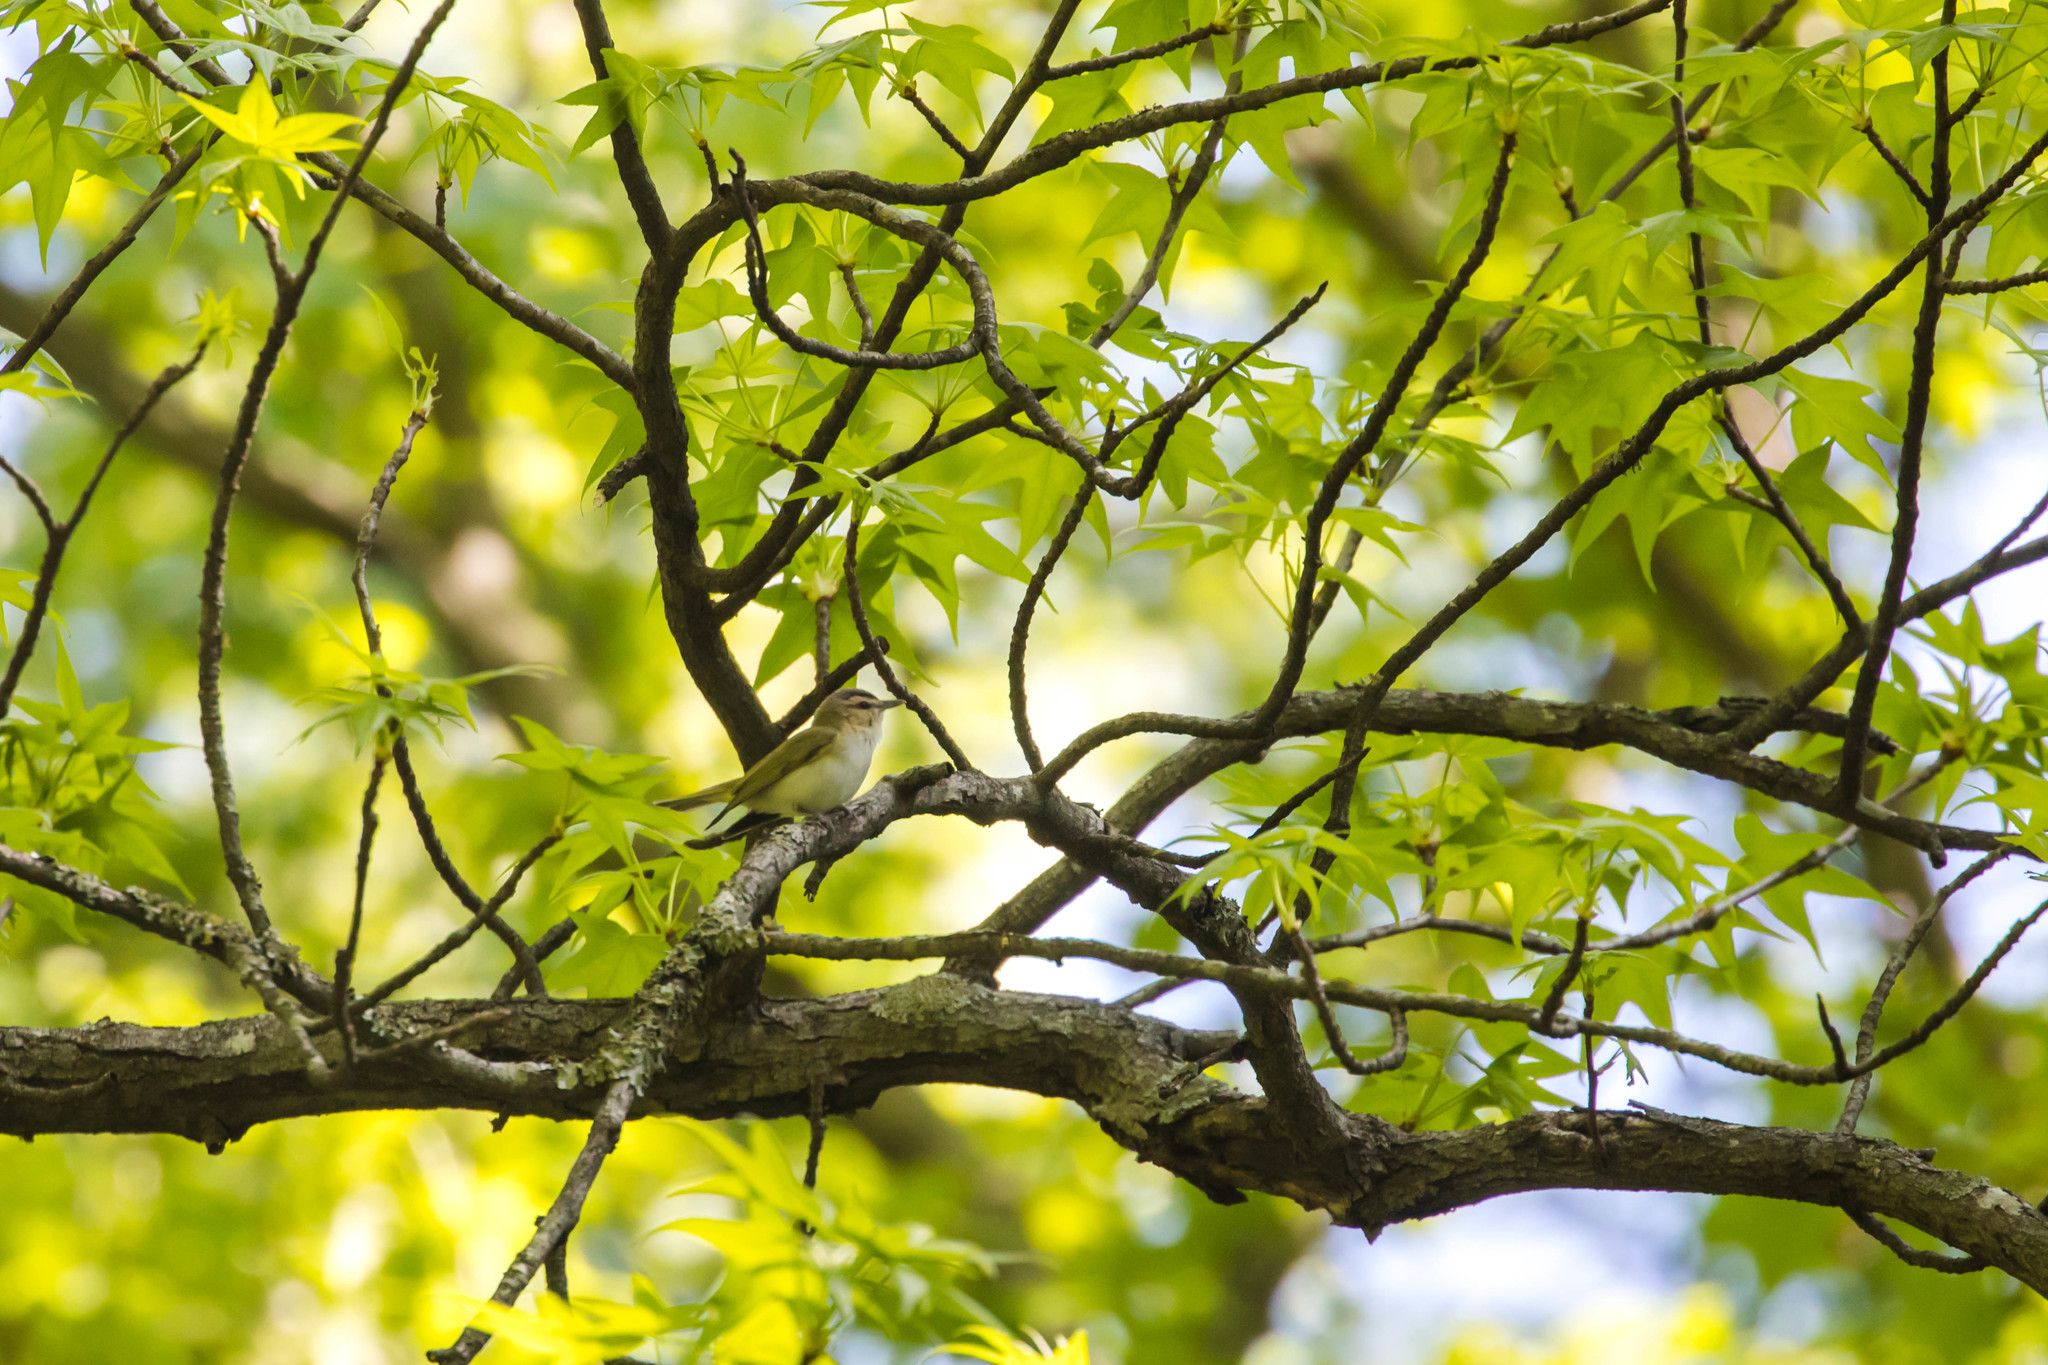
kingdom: Animalia
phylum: Chordata
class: Aves
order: Passeriformes
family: Vireonidae
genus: Vireo
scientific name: Vireo olivaceus
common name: Red-eyed vireo
